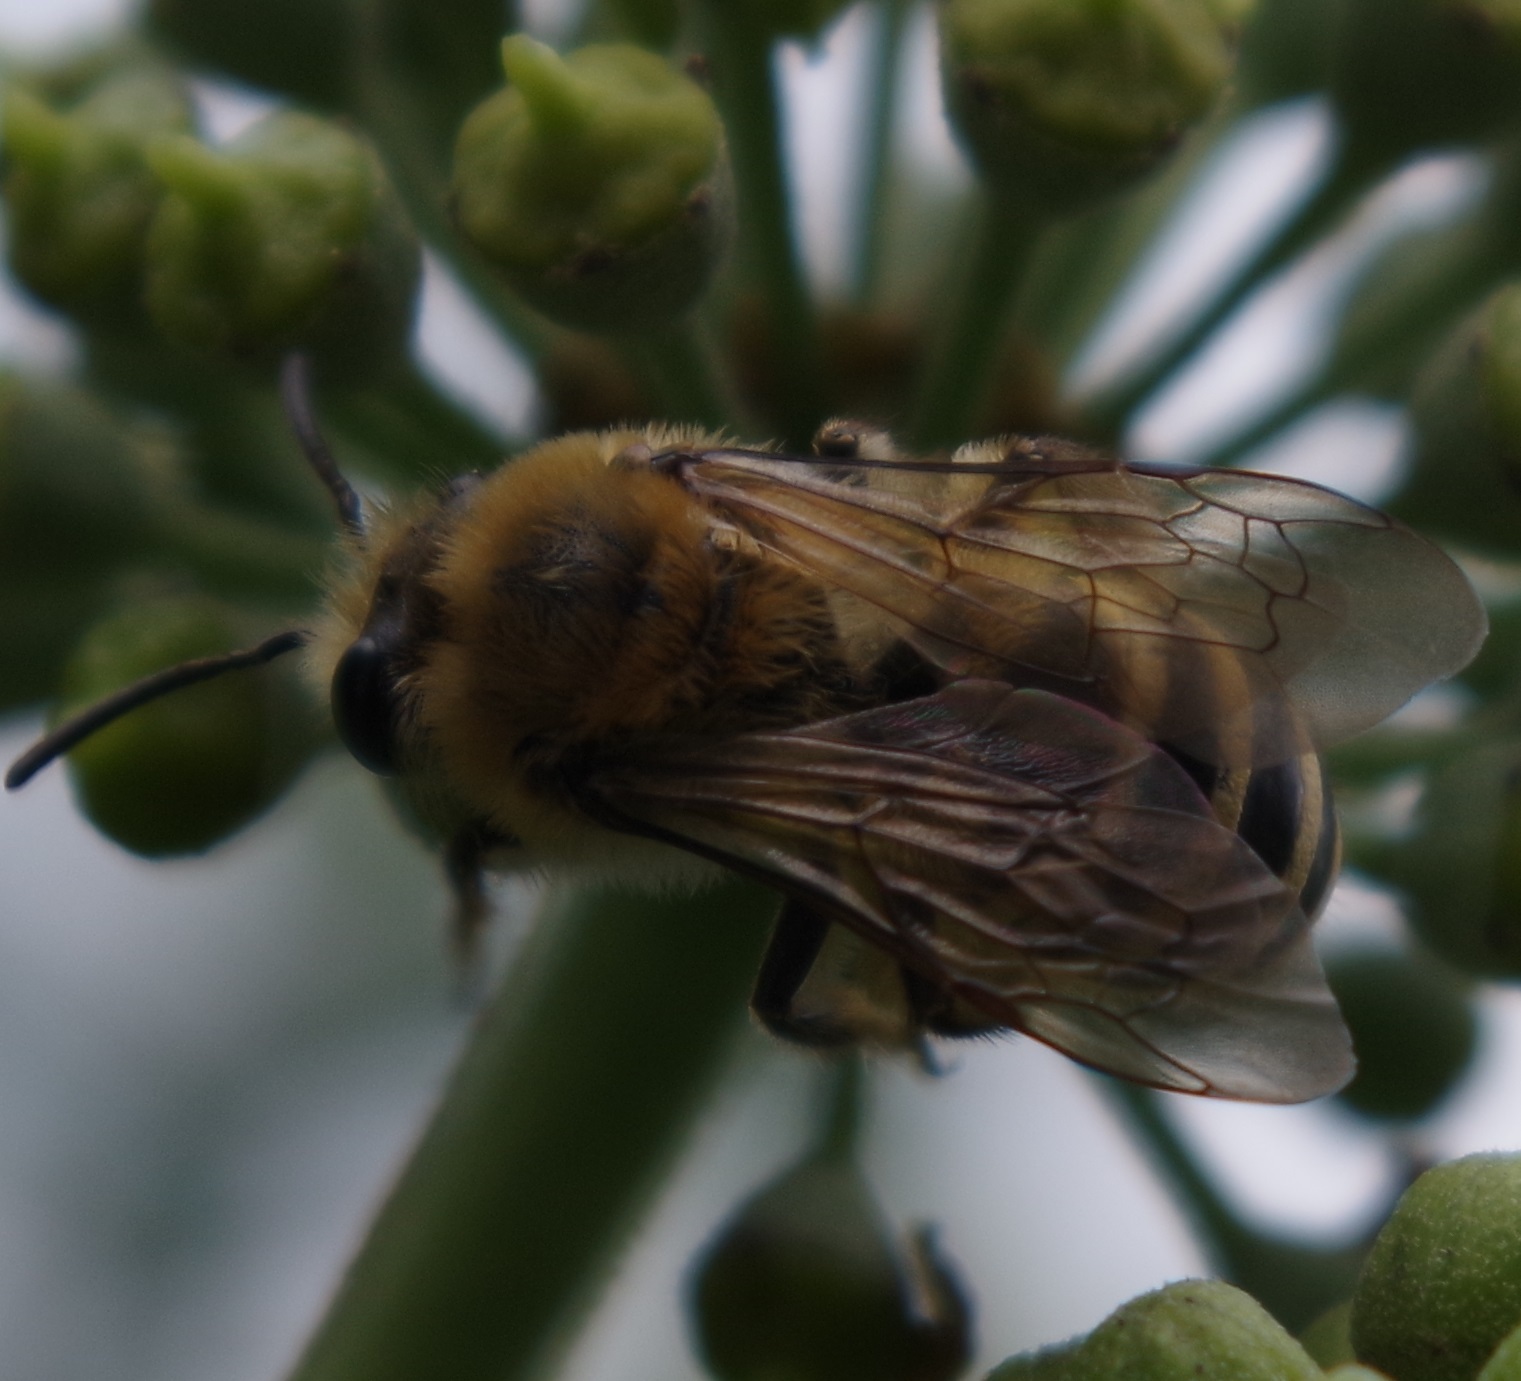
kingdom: Animalia
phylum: Arthropoda
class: Insecta
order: Hymenoptera
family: Colletidae
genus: Colletes
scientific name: Colletes hederae
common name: Ivy bee
